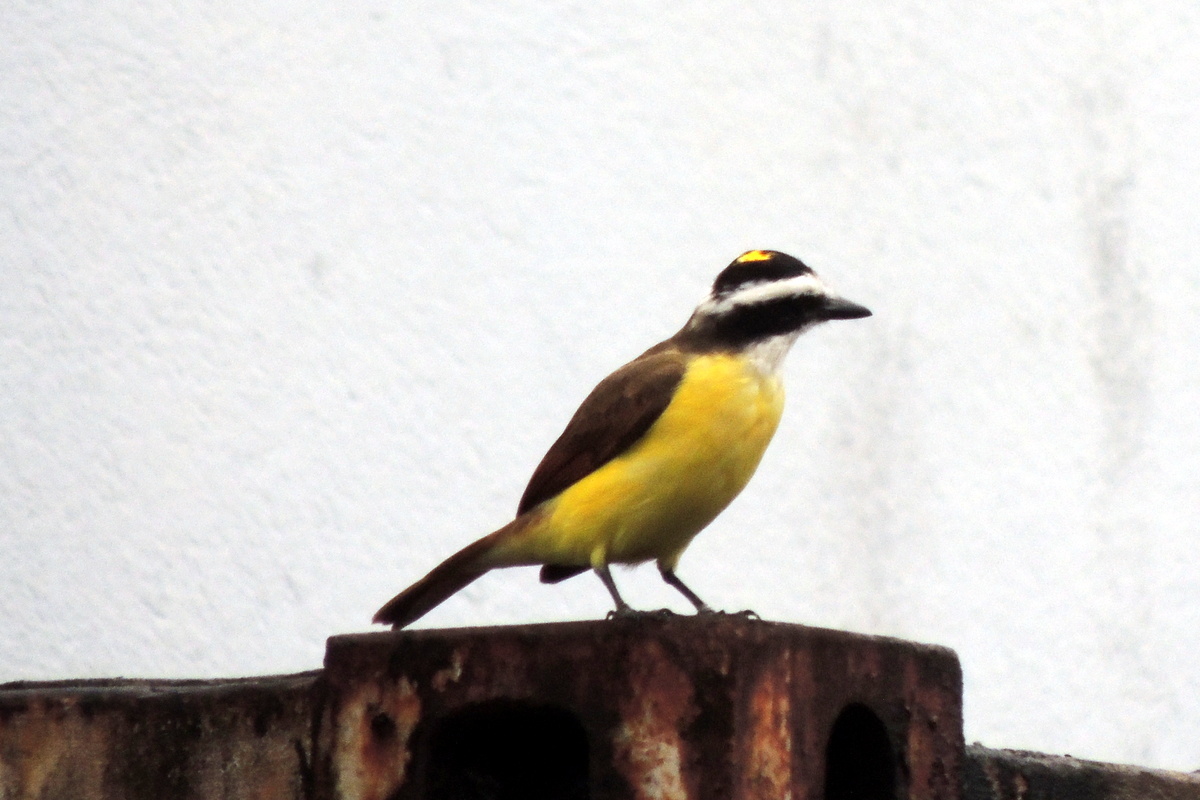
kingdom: Animalia
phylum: Chordata
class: Aves
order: Passeriformes
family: Tyrannidae
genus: Pitangus
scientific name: Pitangus sulphuratus
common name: Great kiskadee
